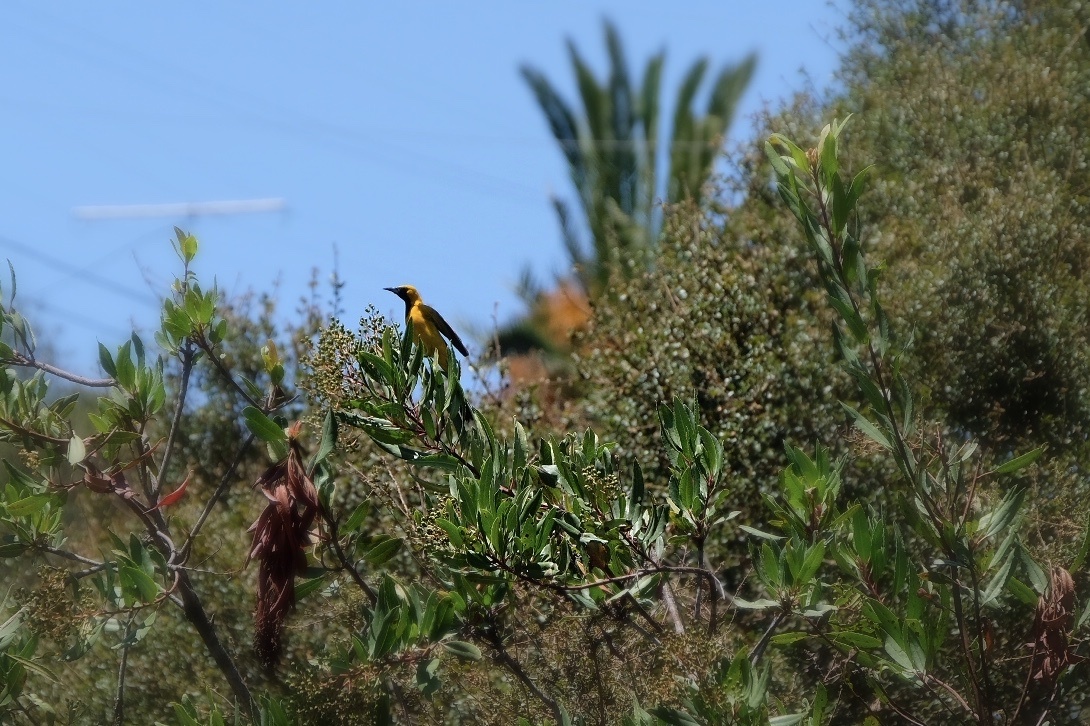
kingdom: Animalia
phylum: Chordata
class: Aves
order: Passeriformes
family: Icteridae
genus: Icterus
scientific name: Icterus cucullatus
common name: Hooded oriole
